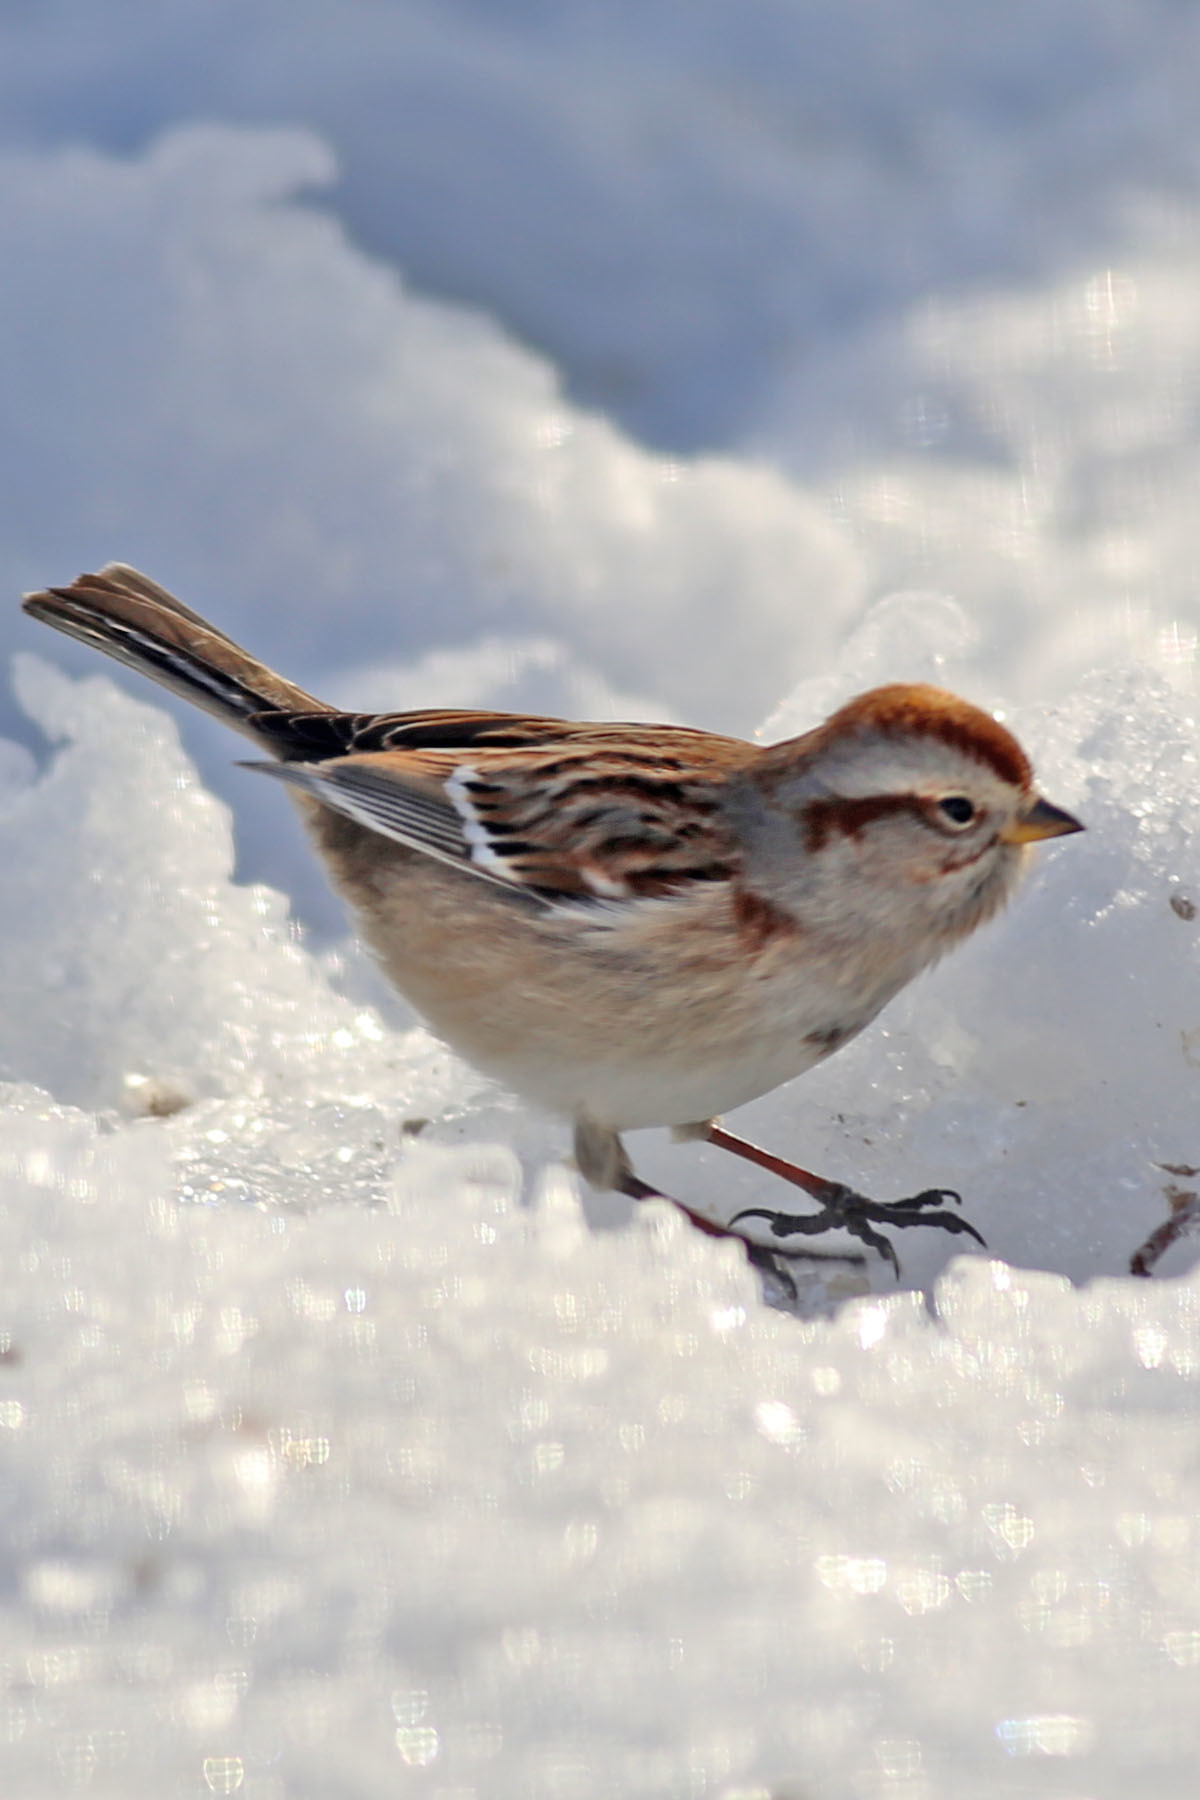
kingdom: Animalia
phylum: Chordata
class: Aves
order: Passeriformes
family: Passerellidae
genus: Spizelloides
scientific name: Spizelloides arborea
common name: American tree sparrow
